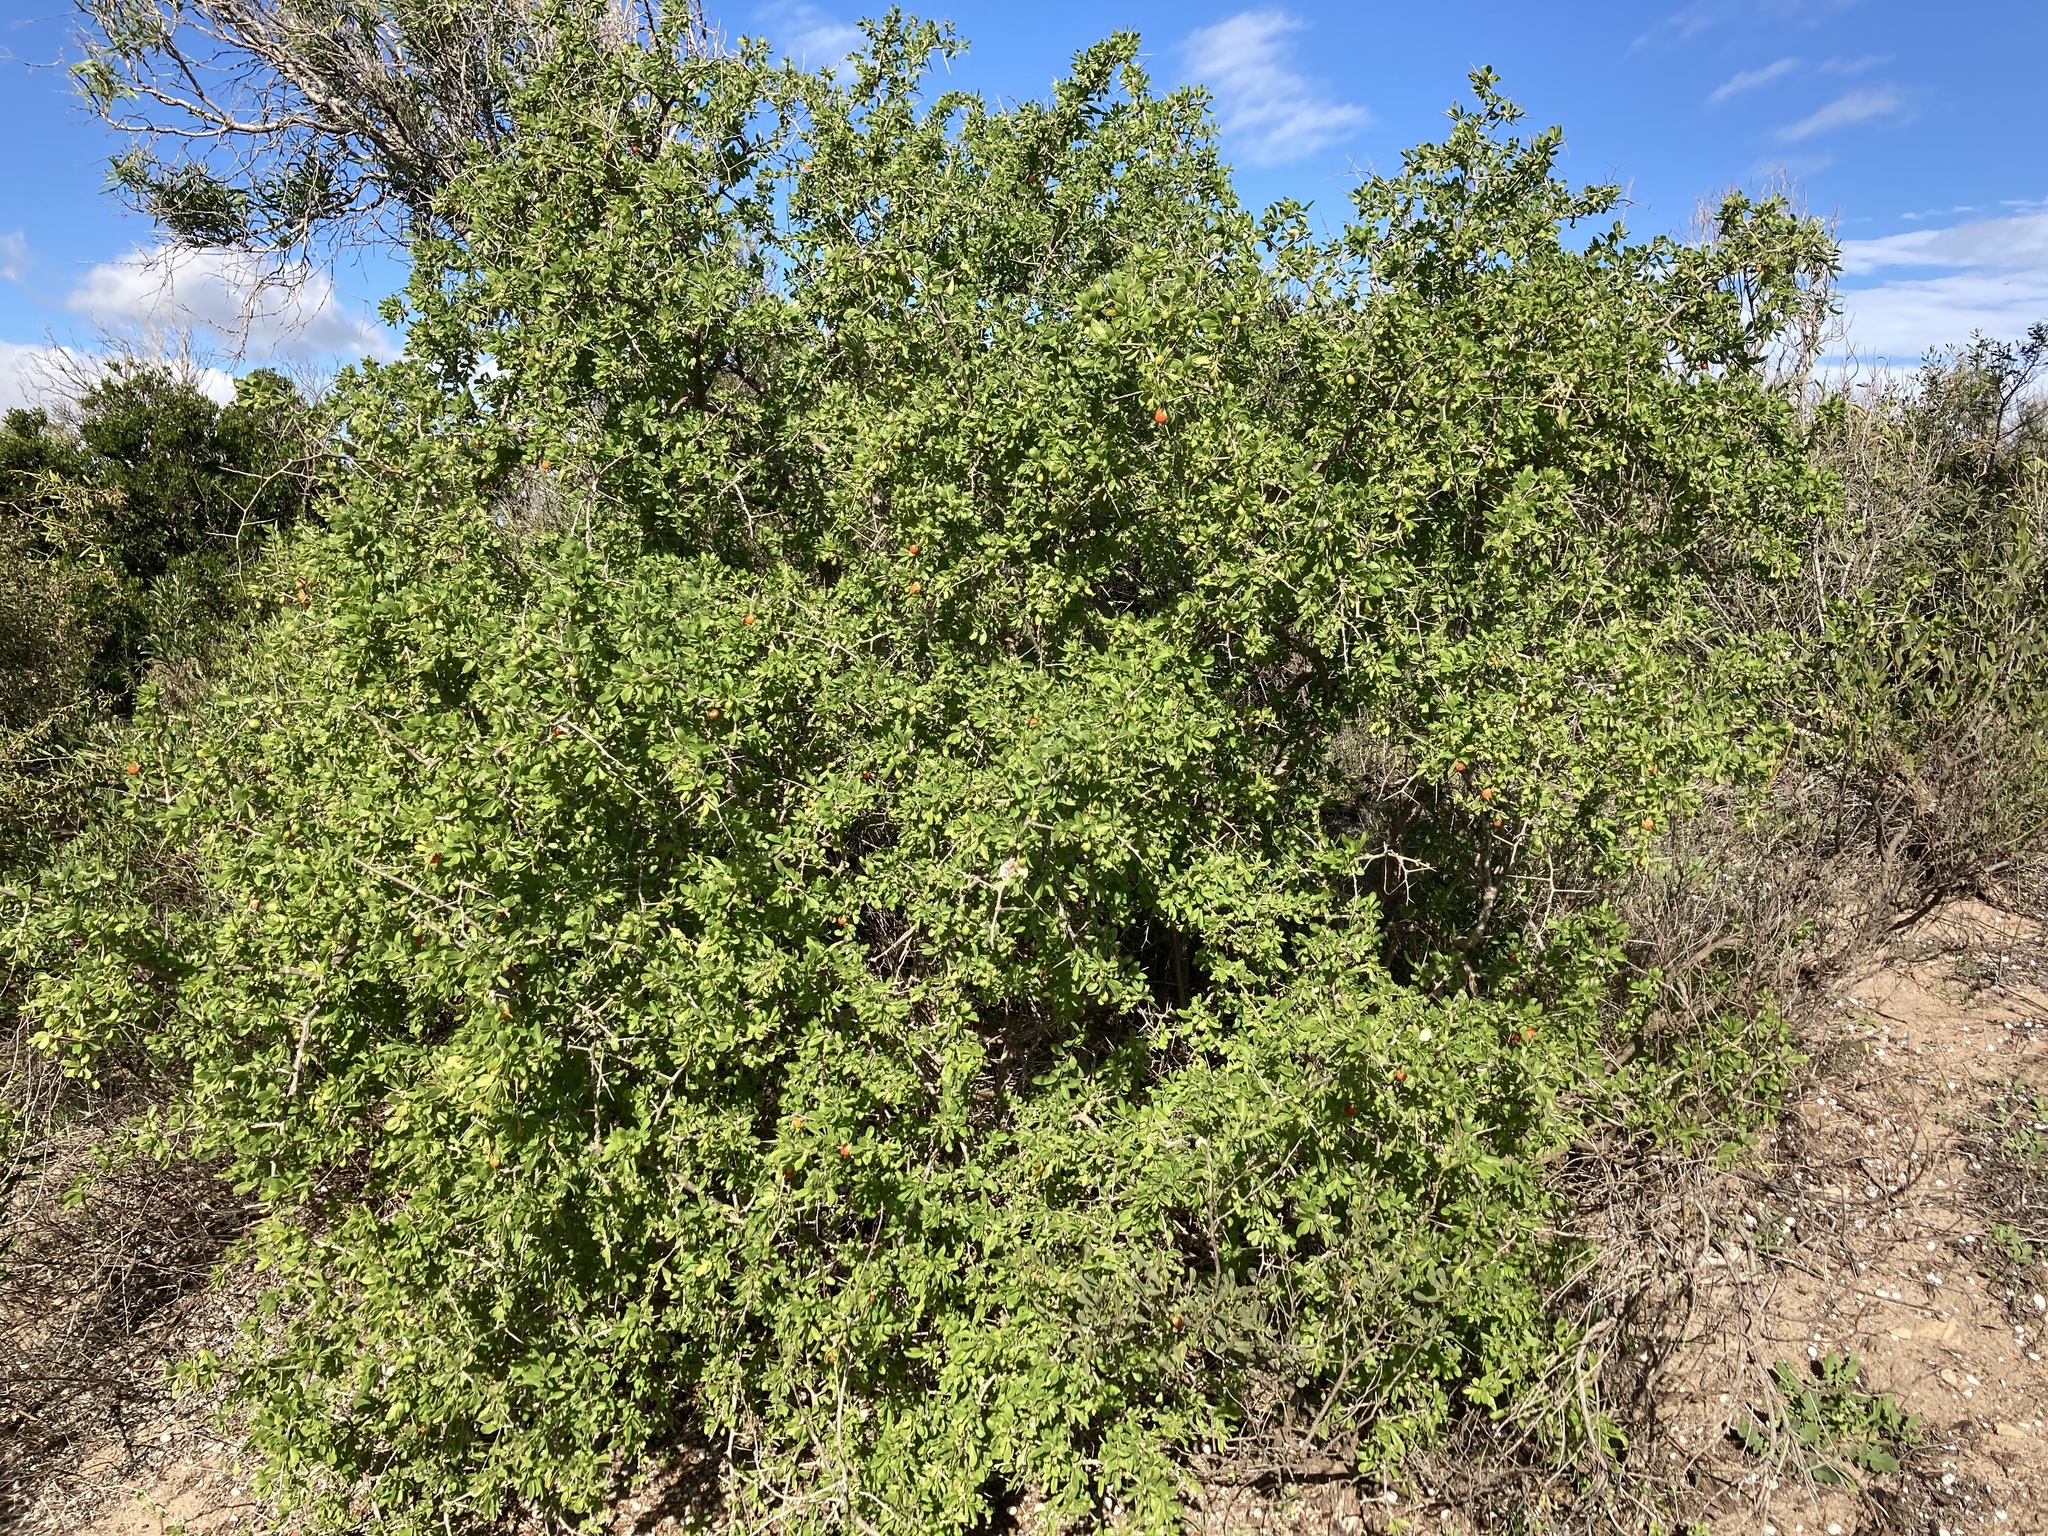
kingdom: Plantae
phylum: Tracheophyta
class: Magnoliopsida
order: Solanales
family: Solanaceae
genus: Lycium
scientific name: Lycium ferocissimum
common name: African boxthorn
